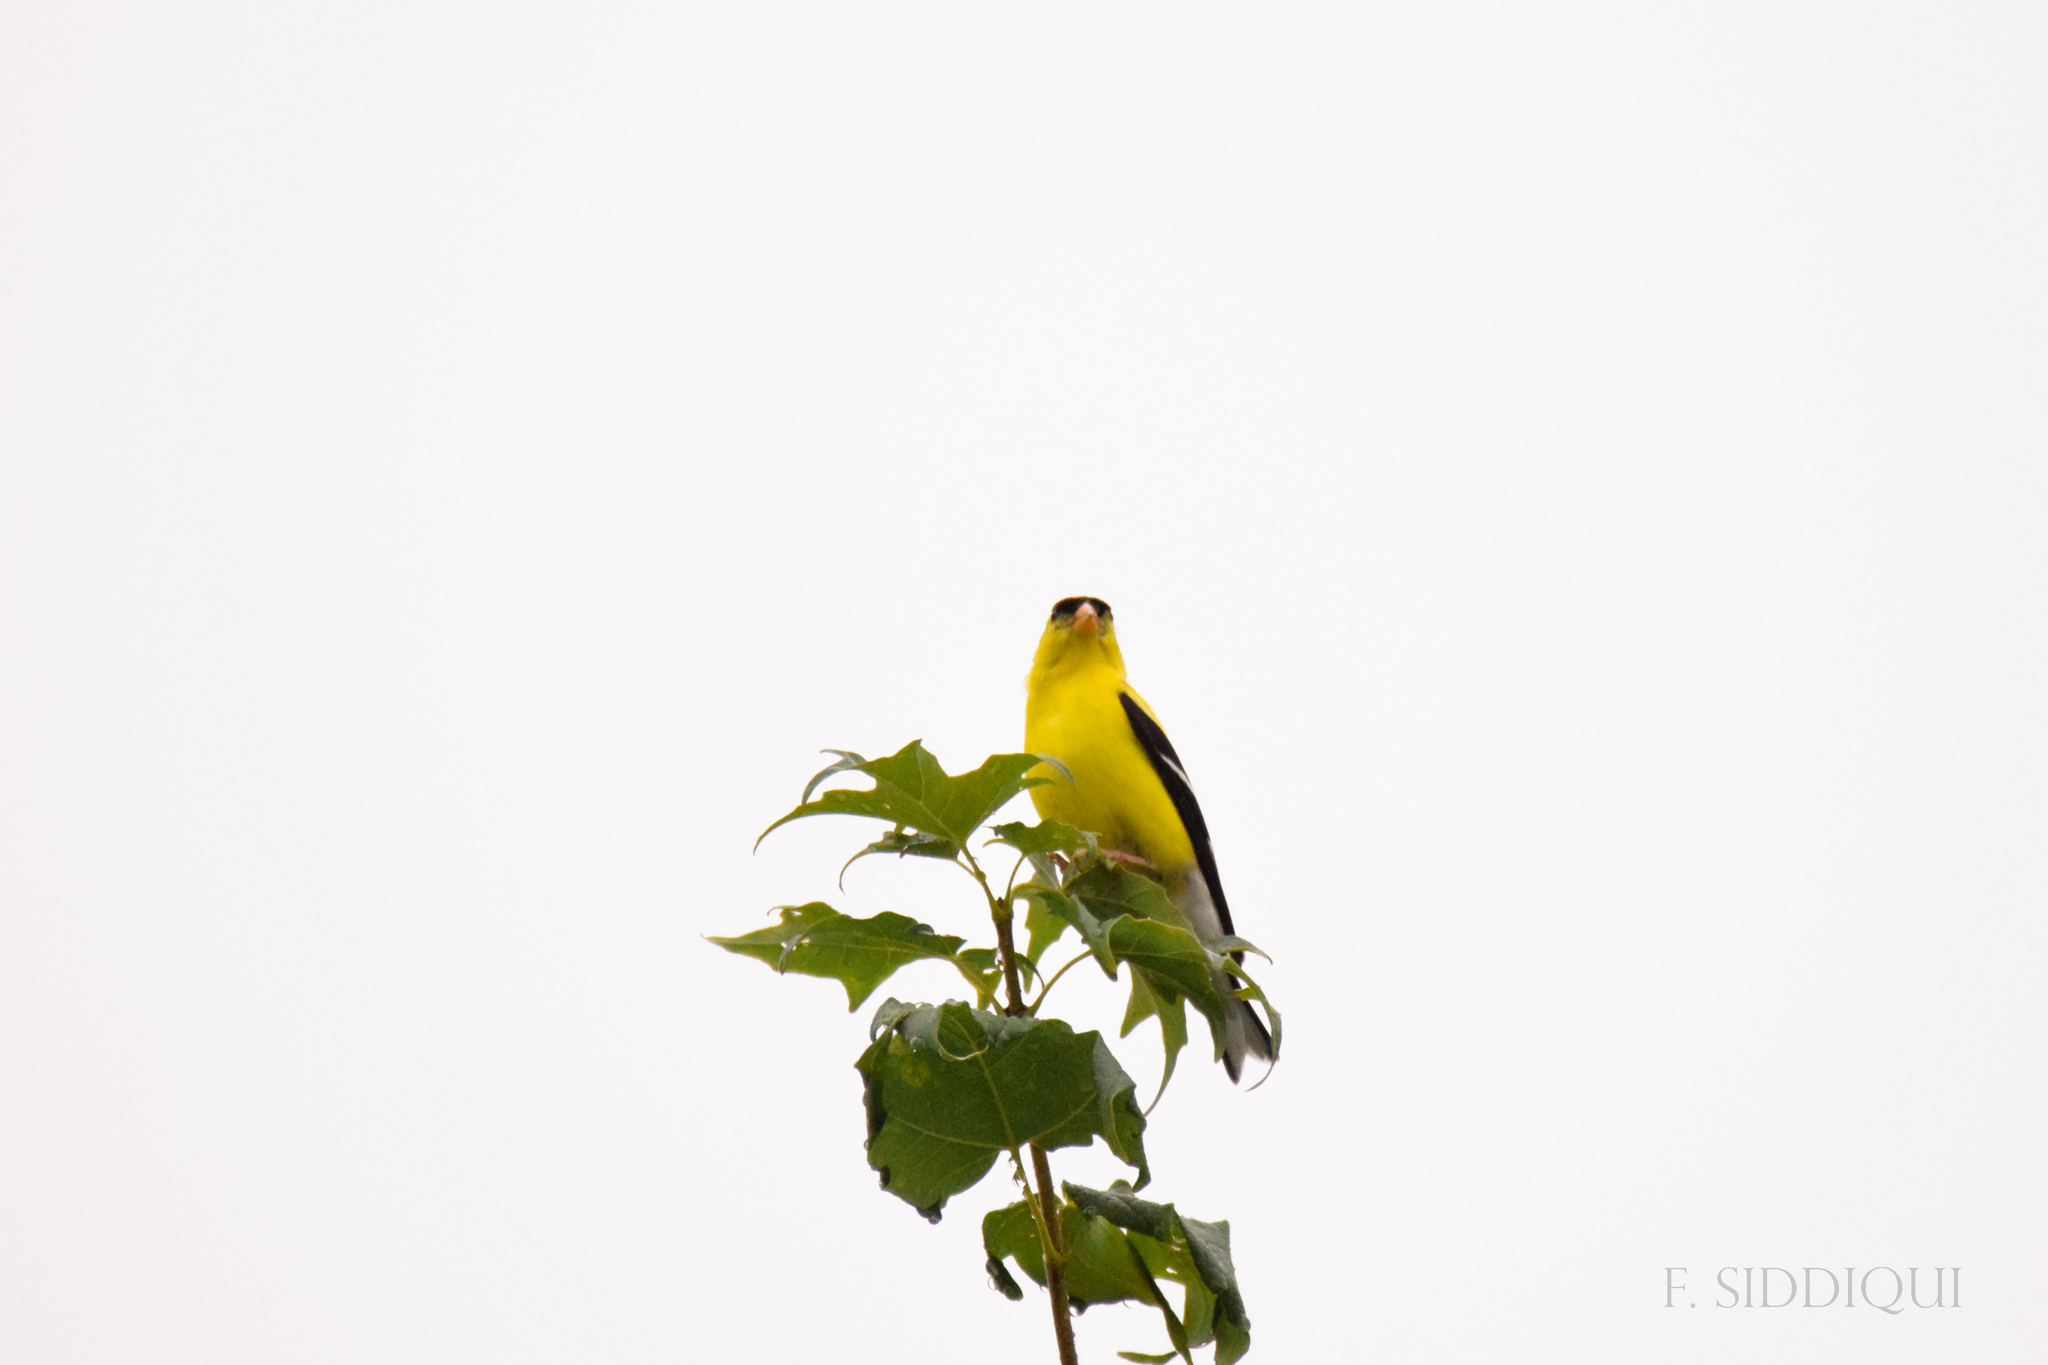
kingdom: Animalia
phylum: Chordata
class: Aves
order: Passeriformes
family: Fringillidae
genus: Spinus
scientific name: Spinus tristis
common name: American goldfinch
